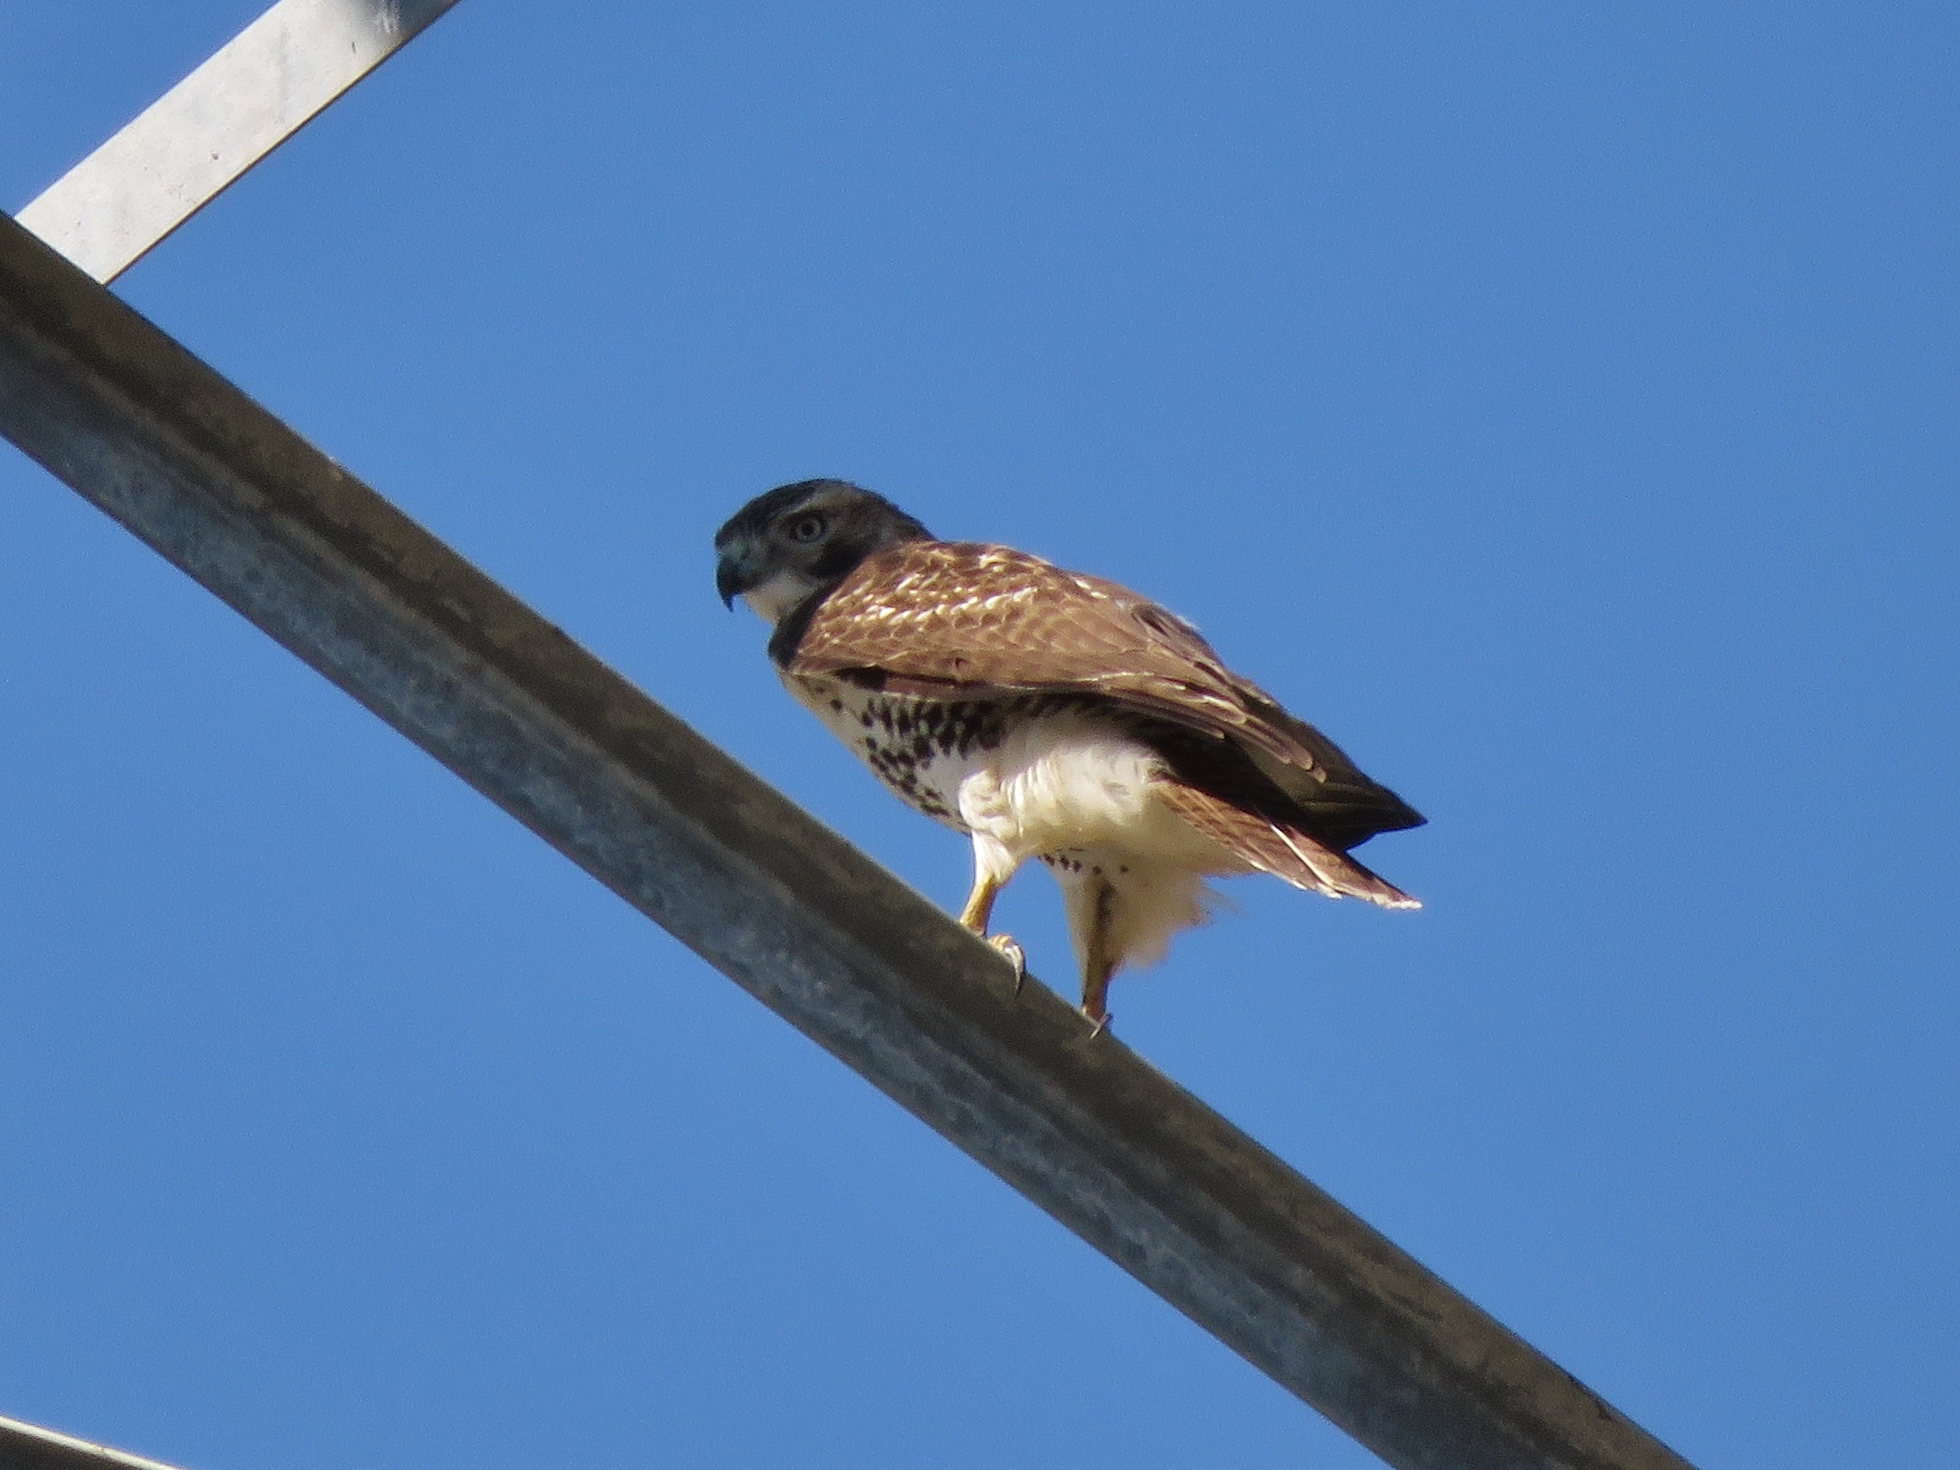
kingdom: Animalia
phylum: Chordata
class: Aves
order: Accipitriformes
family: Accipitridae
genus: Buteo
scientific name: Buteo jamaicensis
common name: Red-tailed hawk
